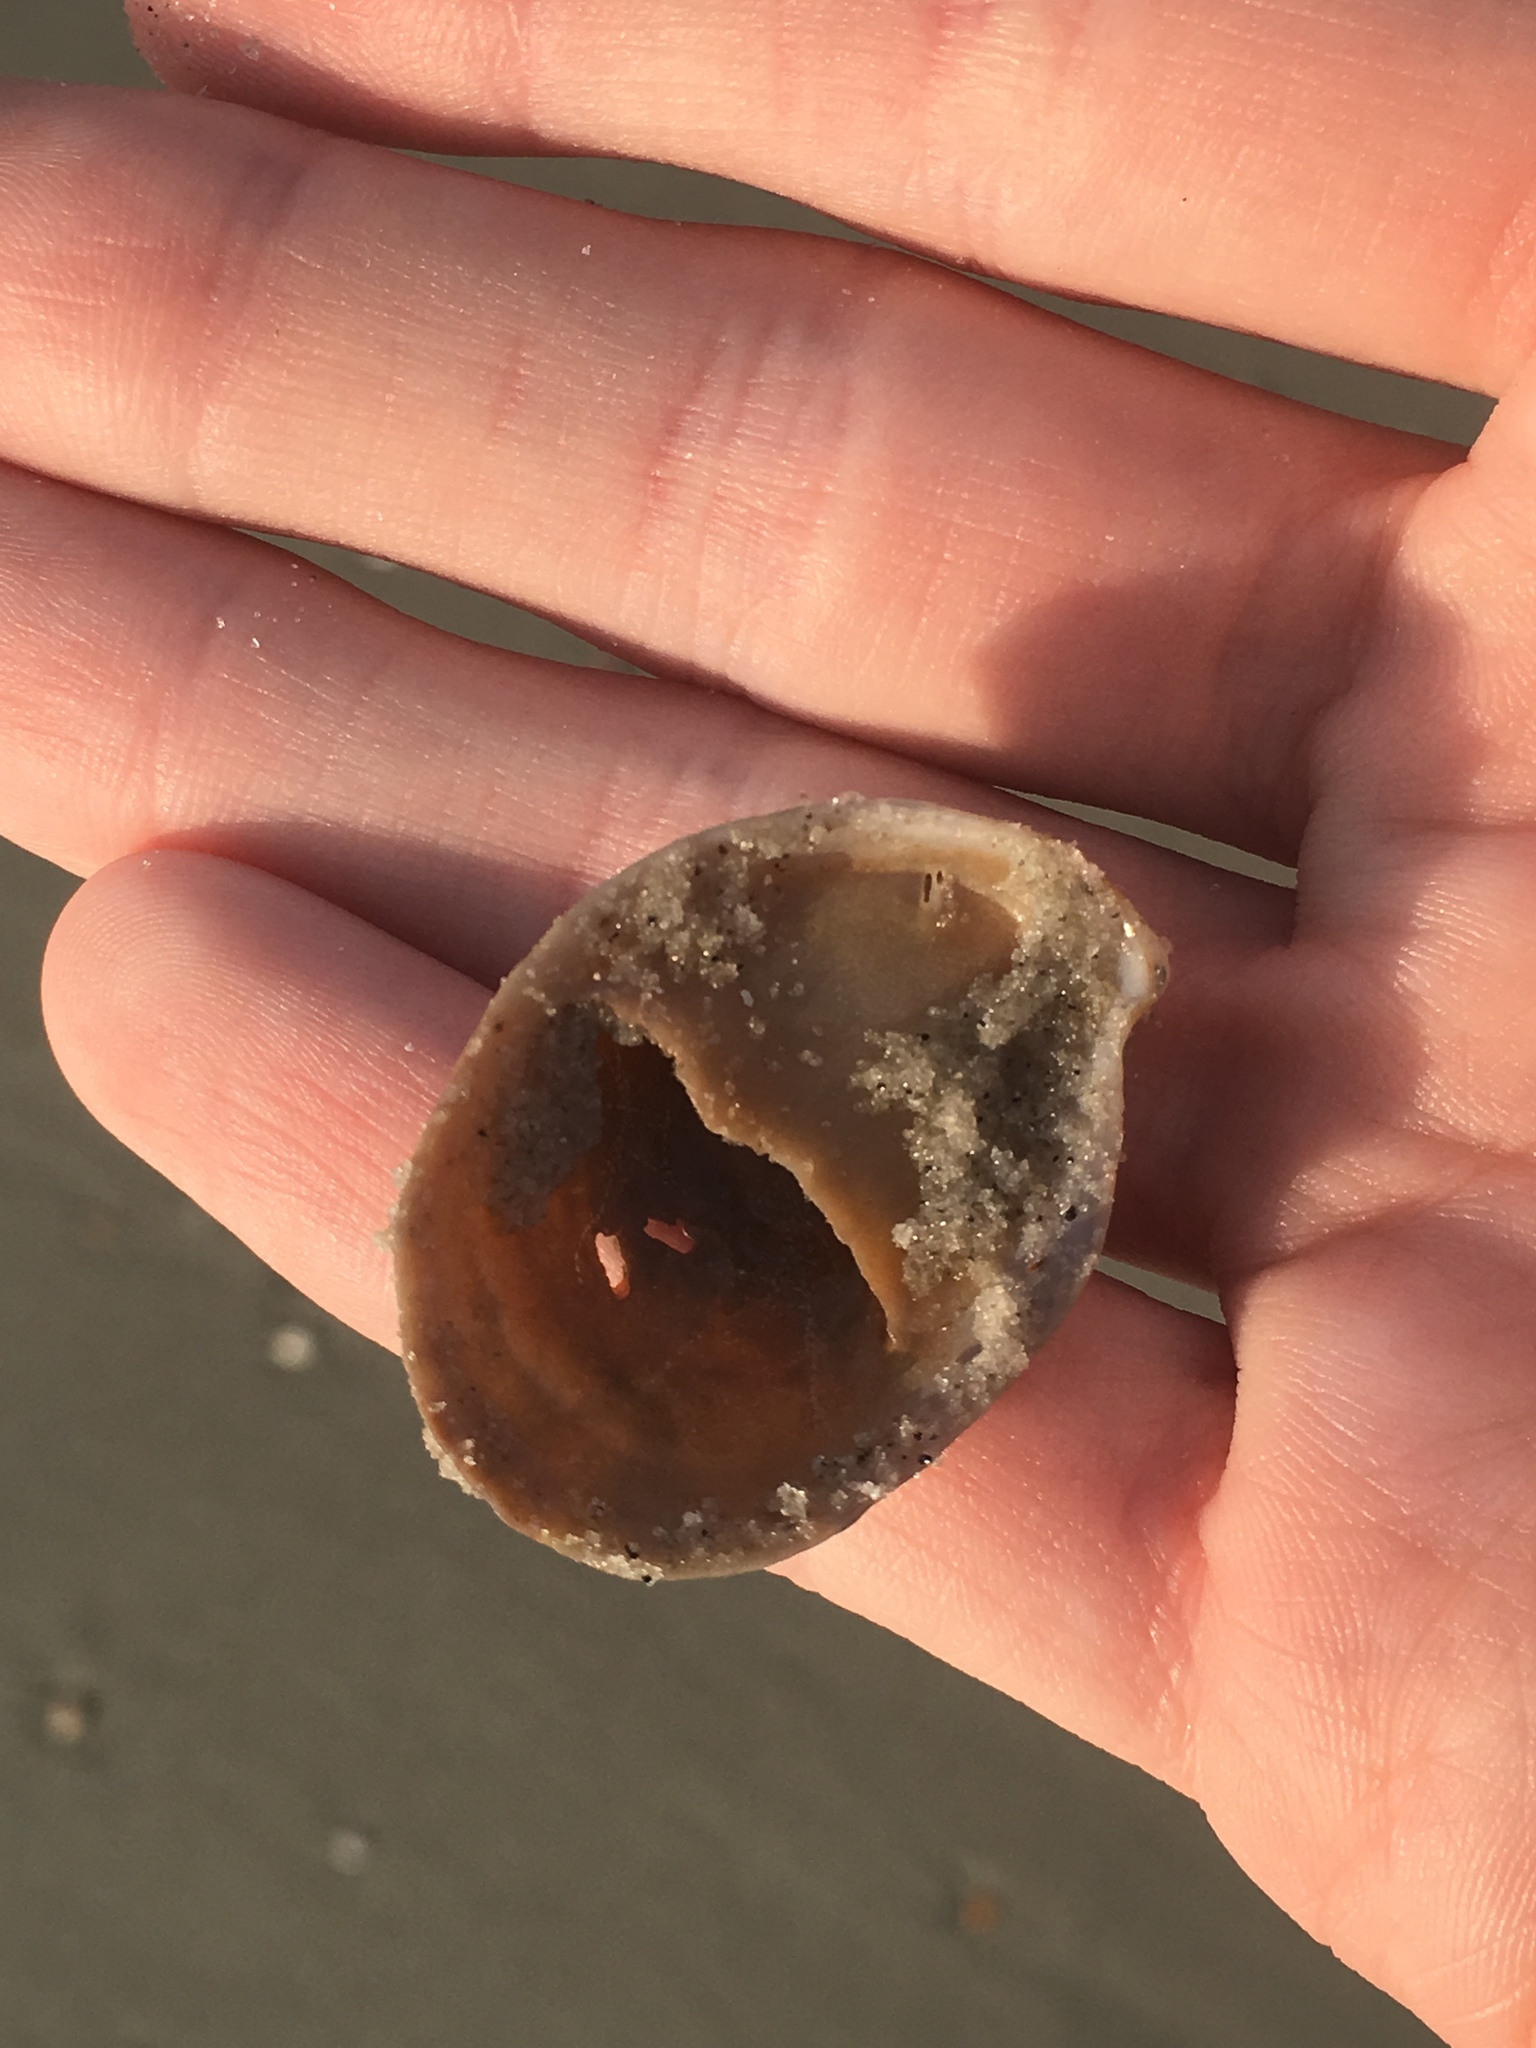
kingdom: Animalia
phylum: Mollusca
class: Gastropoda
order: Littorinimorpha
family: Calyptraeidae
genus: Crepidula
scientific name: Crepidula fornicata
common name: Slipper limpet
